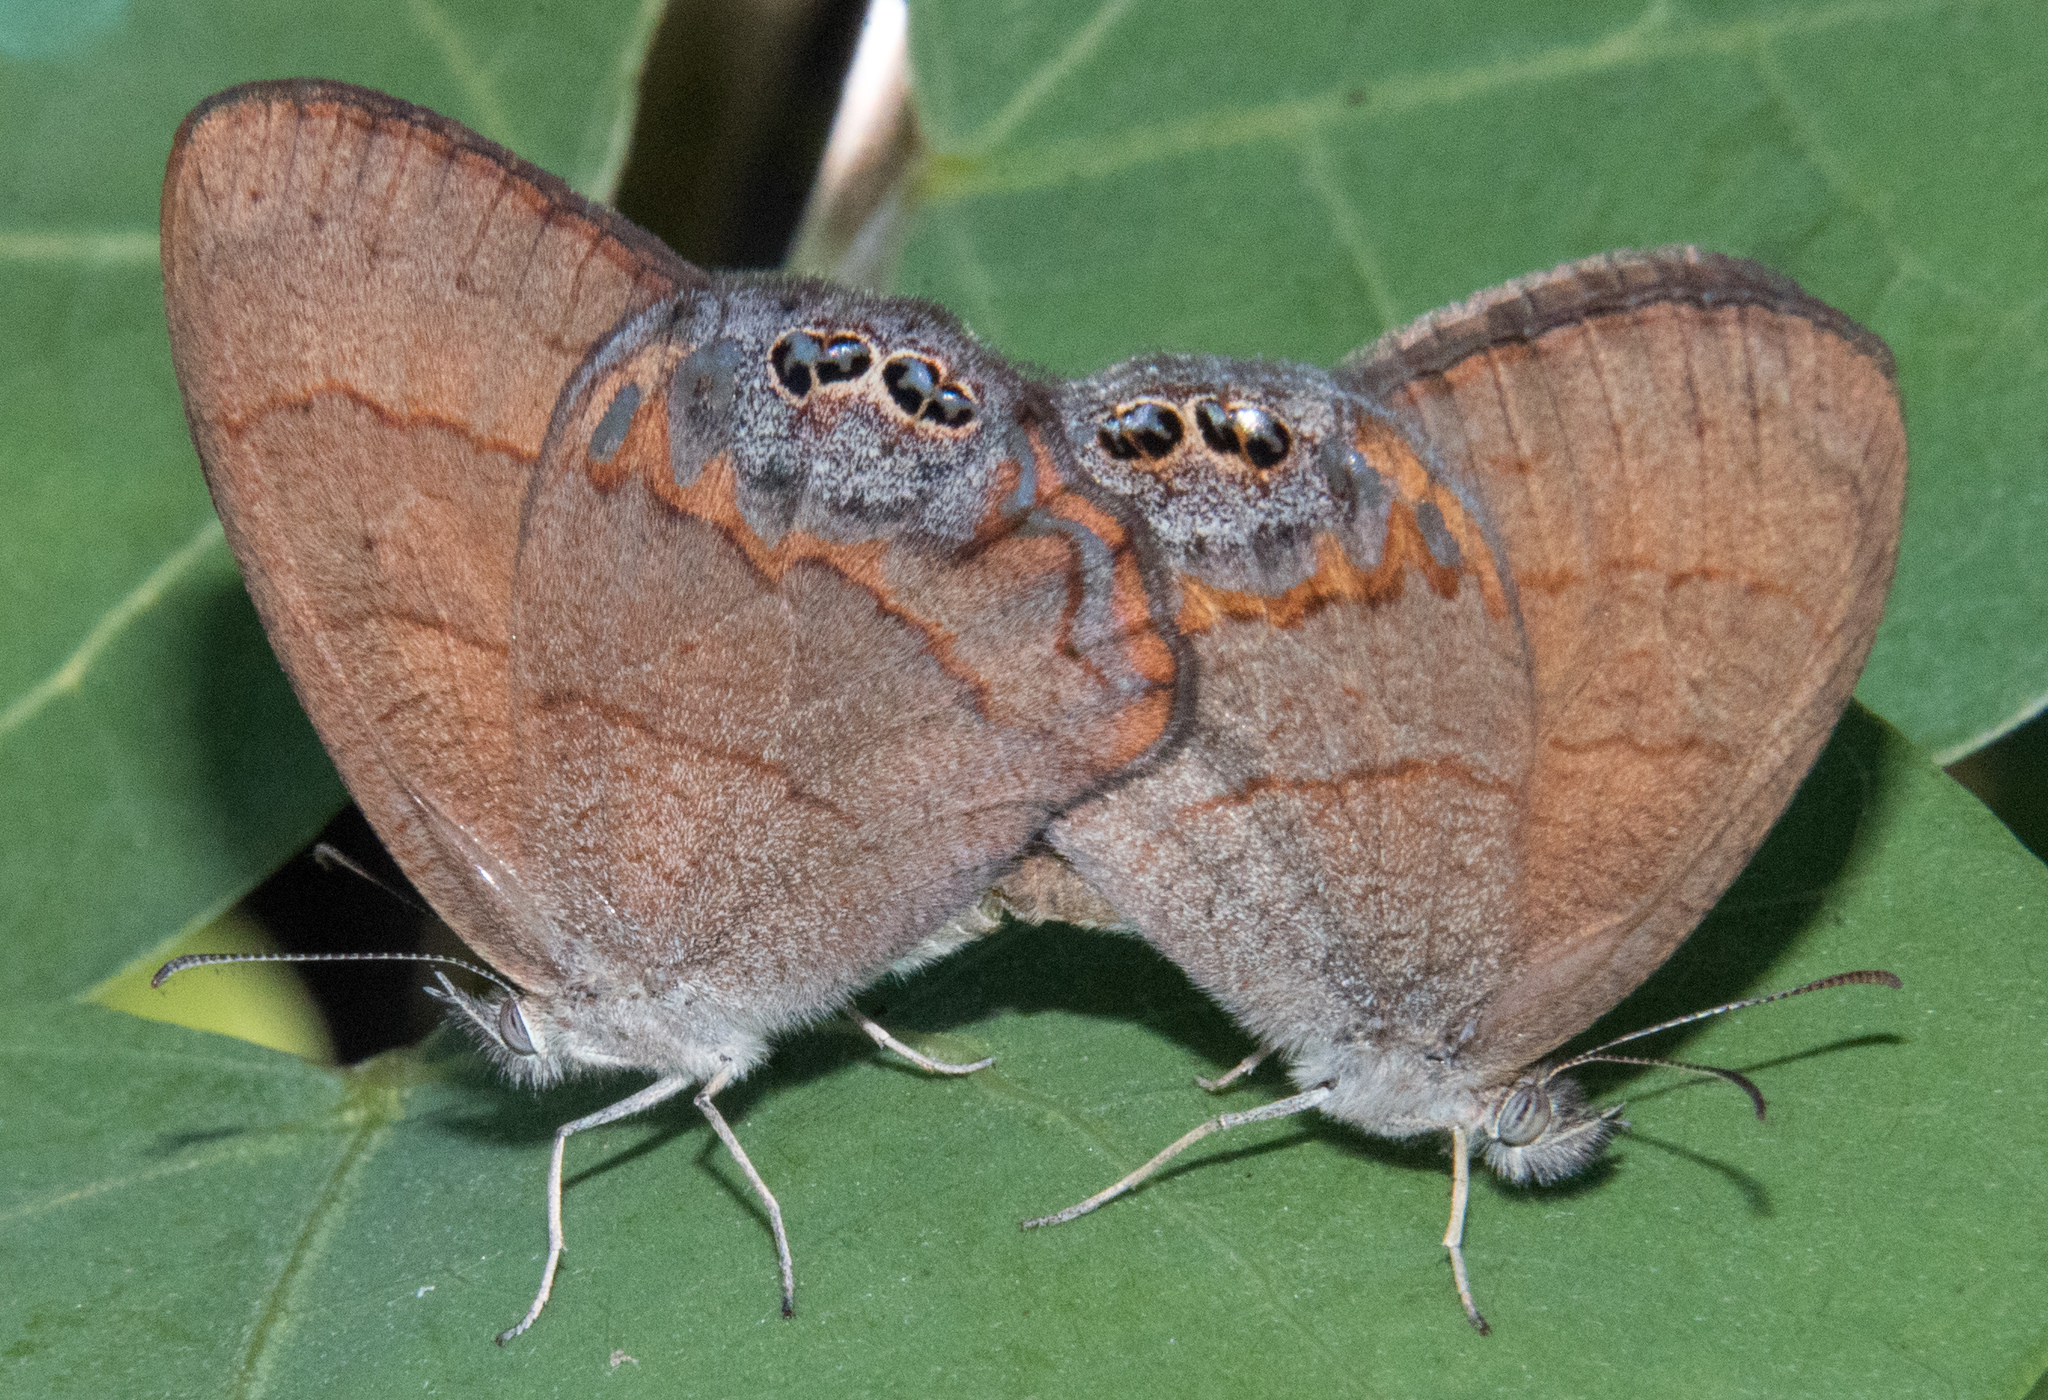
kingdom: Animalia
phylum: Arthropoda
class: Insecta
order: Lepidoptera
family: Nymphalidae
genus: Euptychia
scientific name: Euptychia pyracmon
